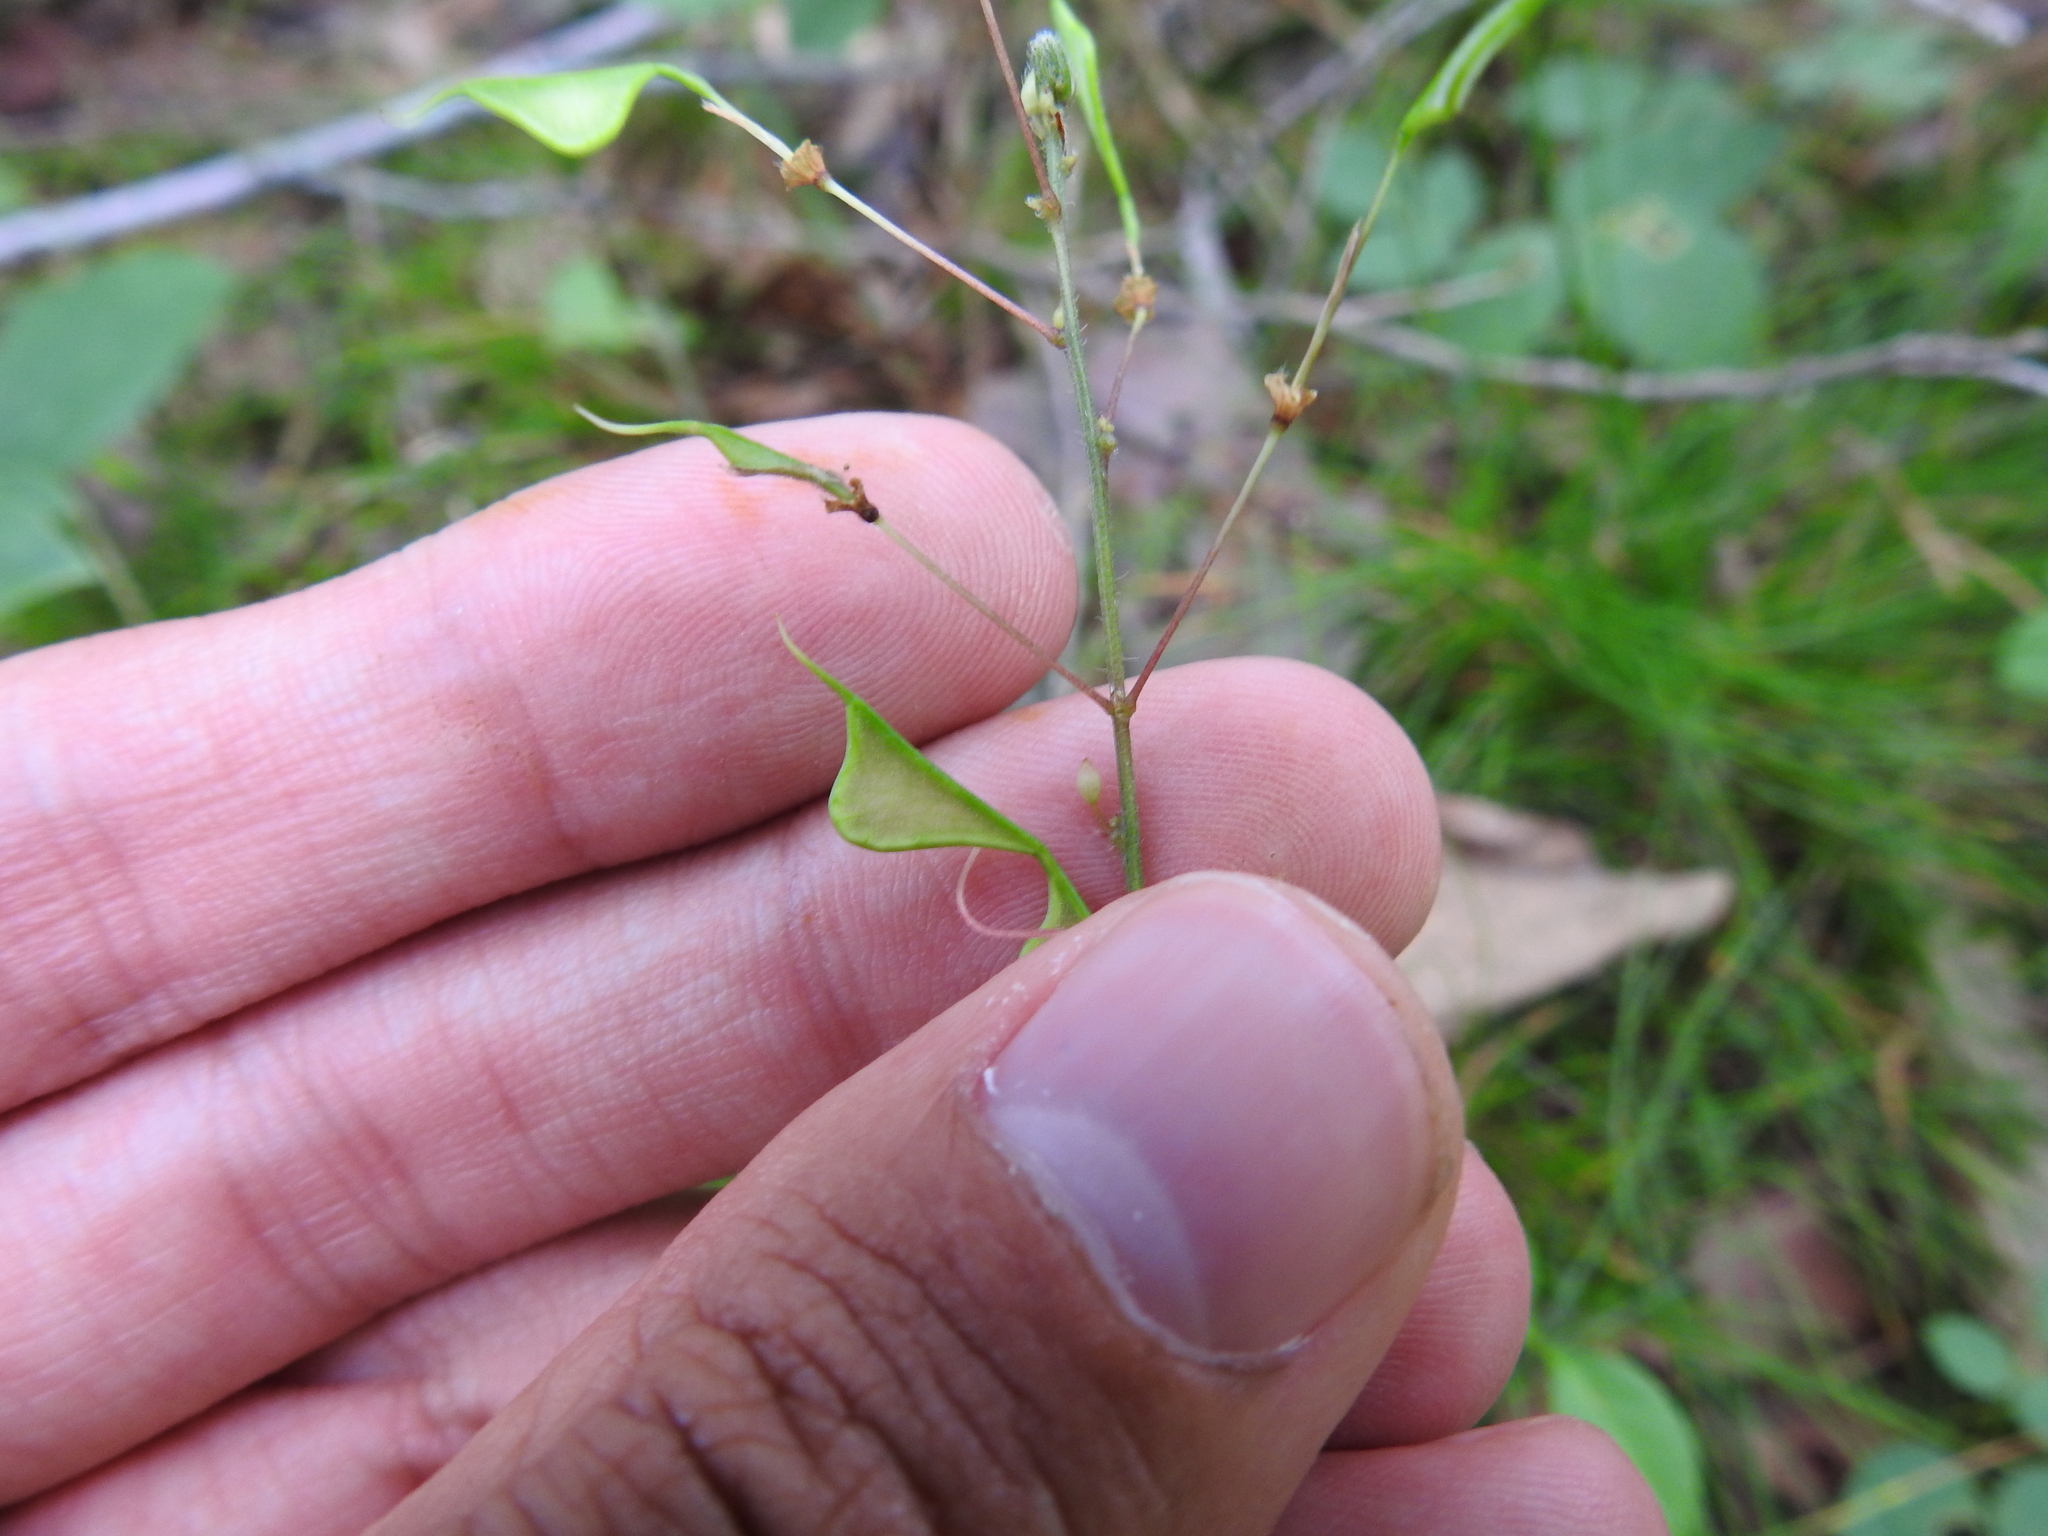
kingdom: Plantae
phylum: Tracheophyta
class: Magnoliopsida
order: Fabales
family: Fabaceae
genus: Hylodesmum
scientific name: Hylodesmum nudiflorum
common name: Bare-stemmed tick-trefoil
